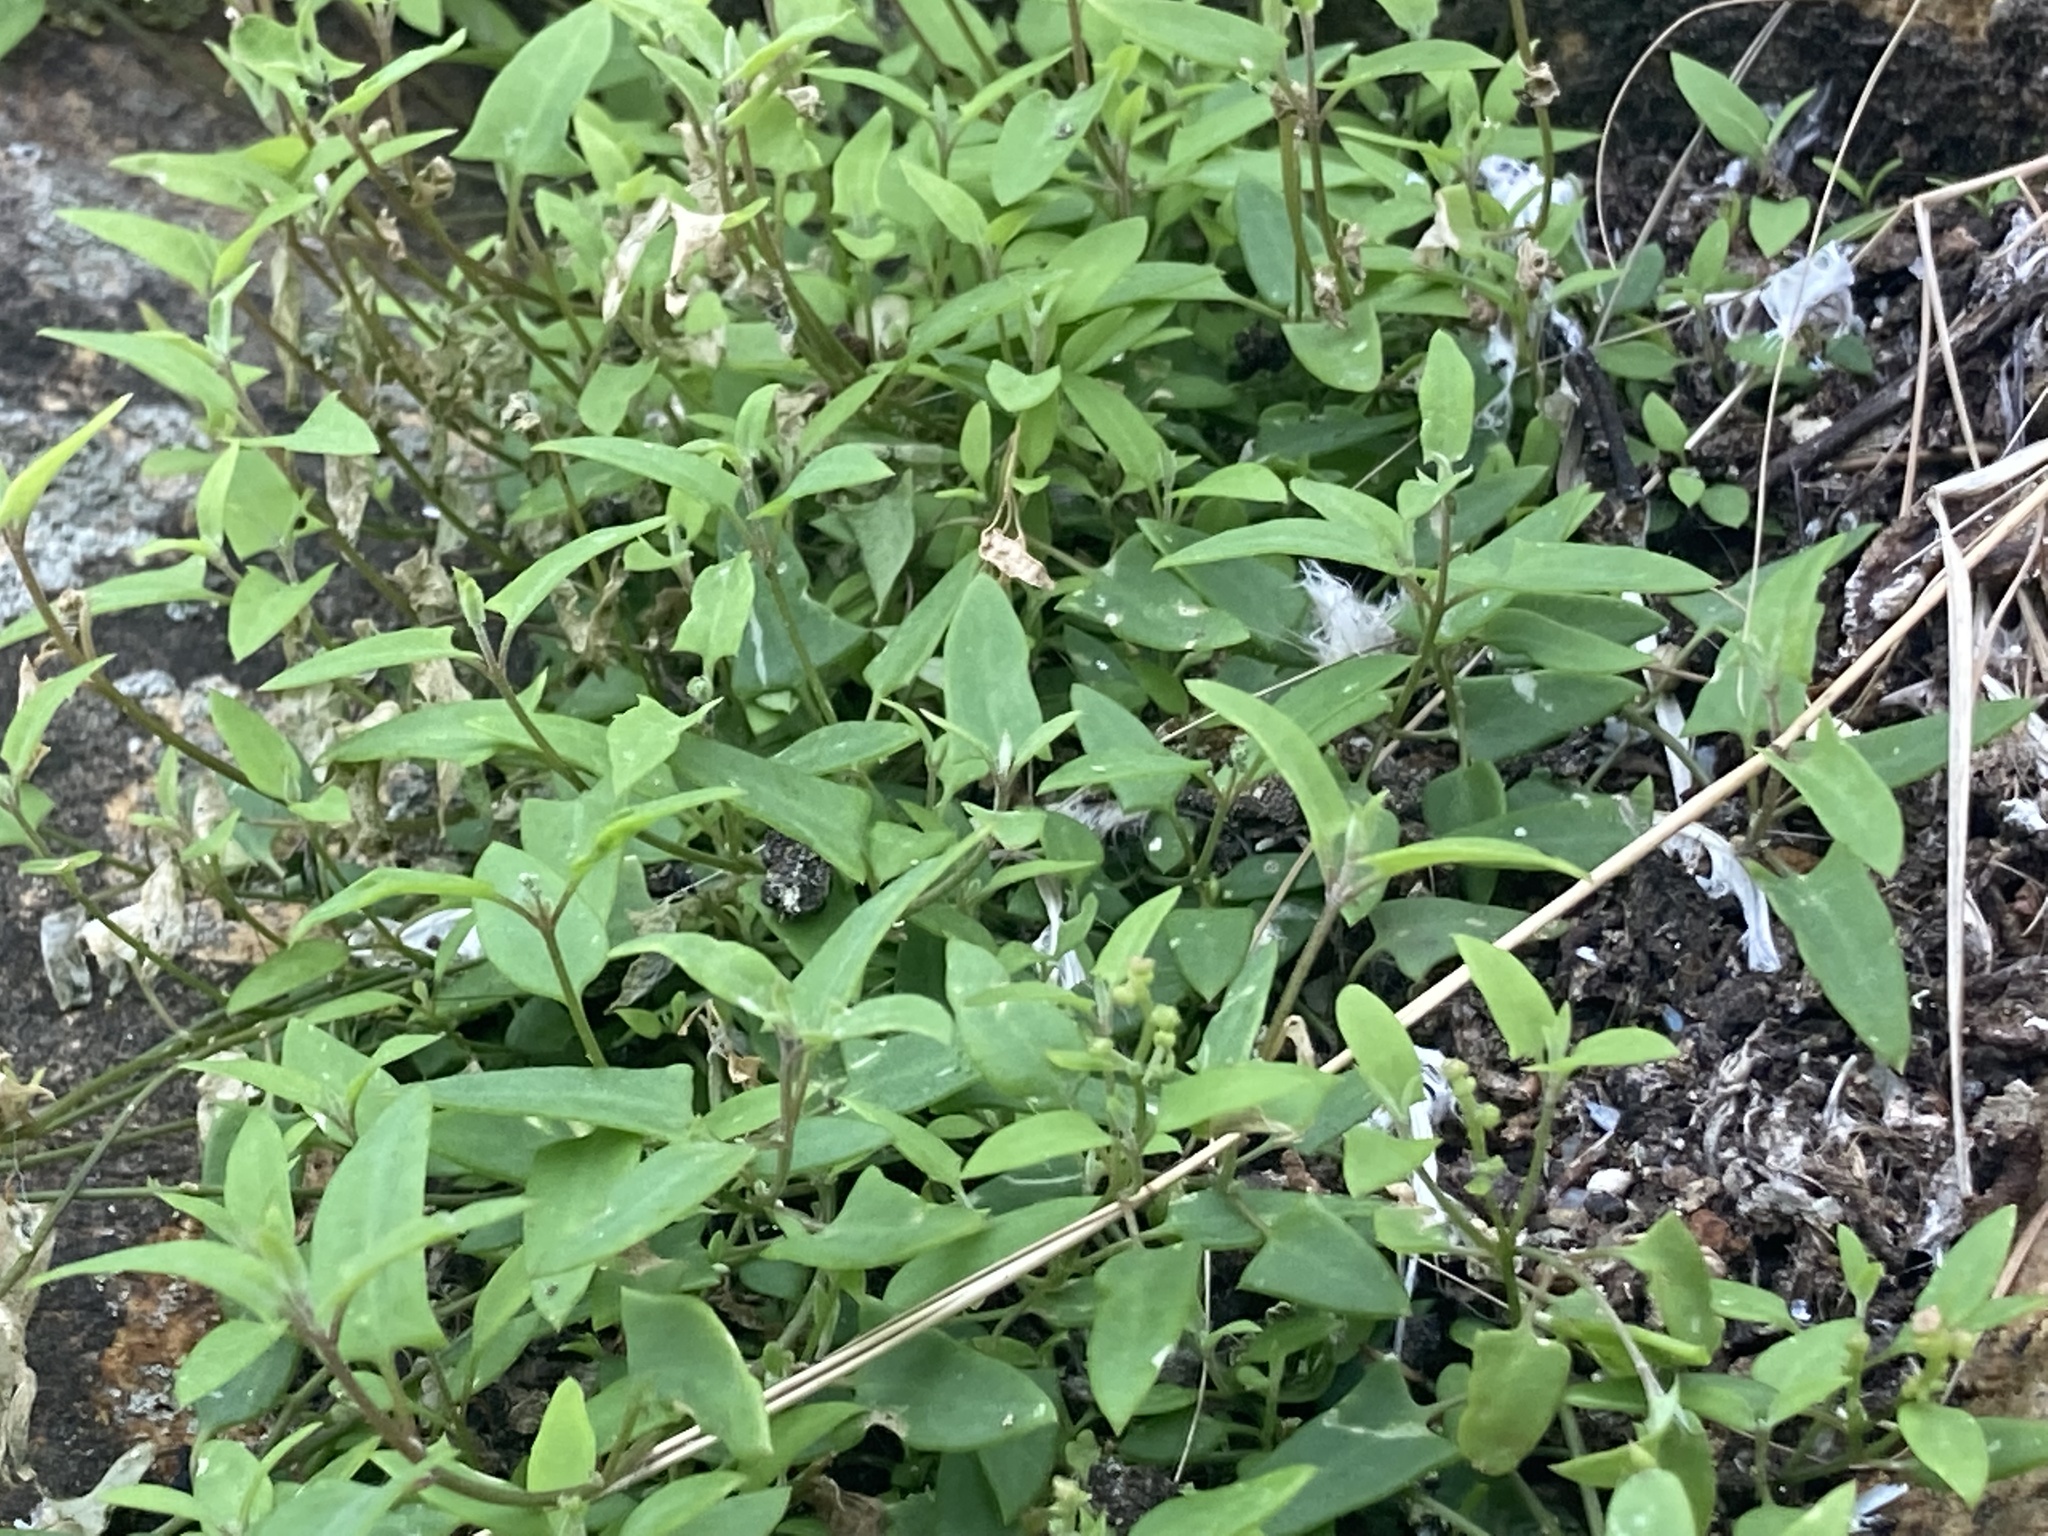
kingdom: Plantae
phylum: Tracheophyta
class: Magnoliopsida
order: Caryophyllales
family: Amaranthaceae
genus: Chenopodium
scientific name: Chenopodium nutans
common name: Climbing-saltbush
